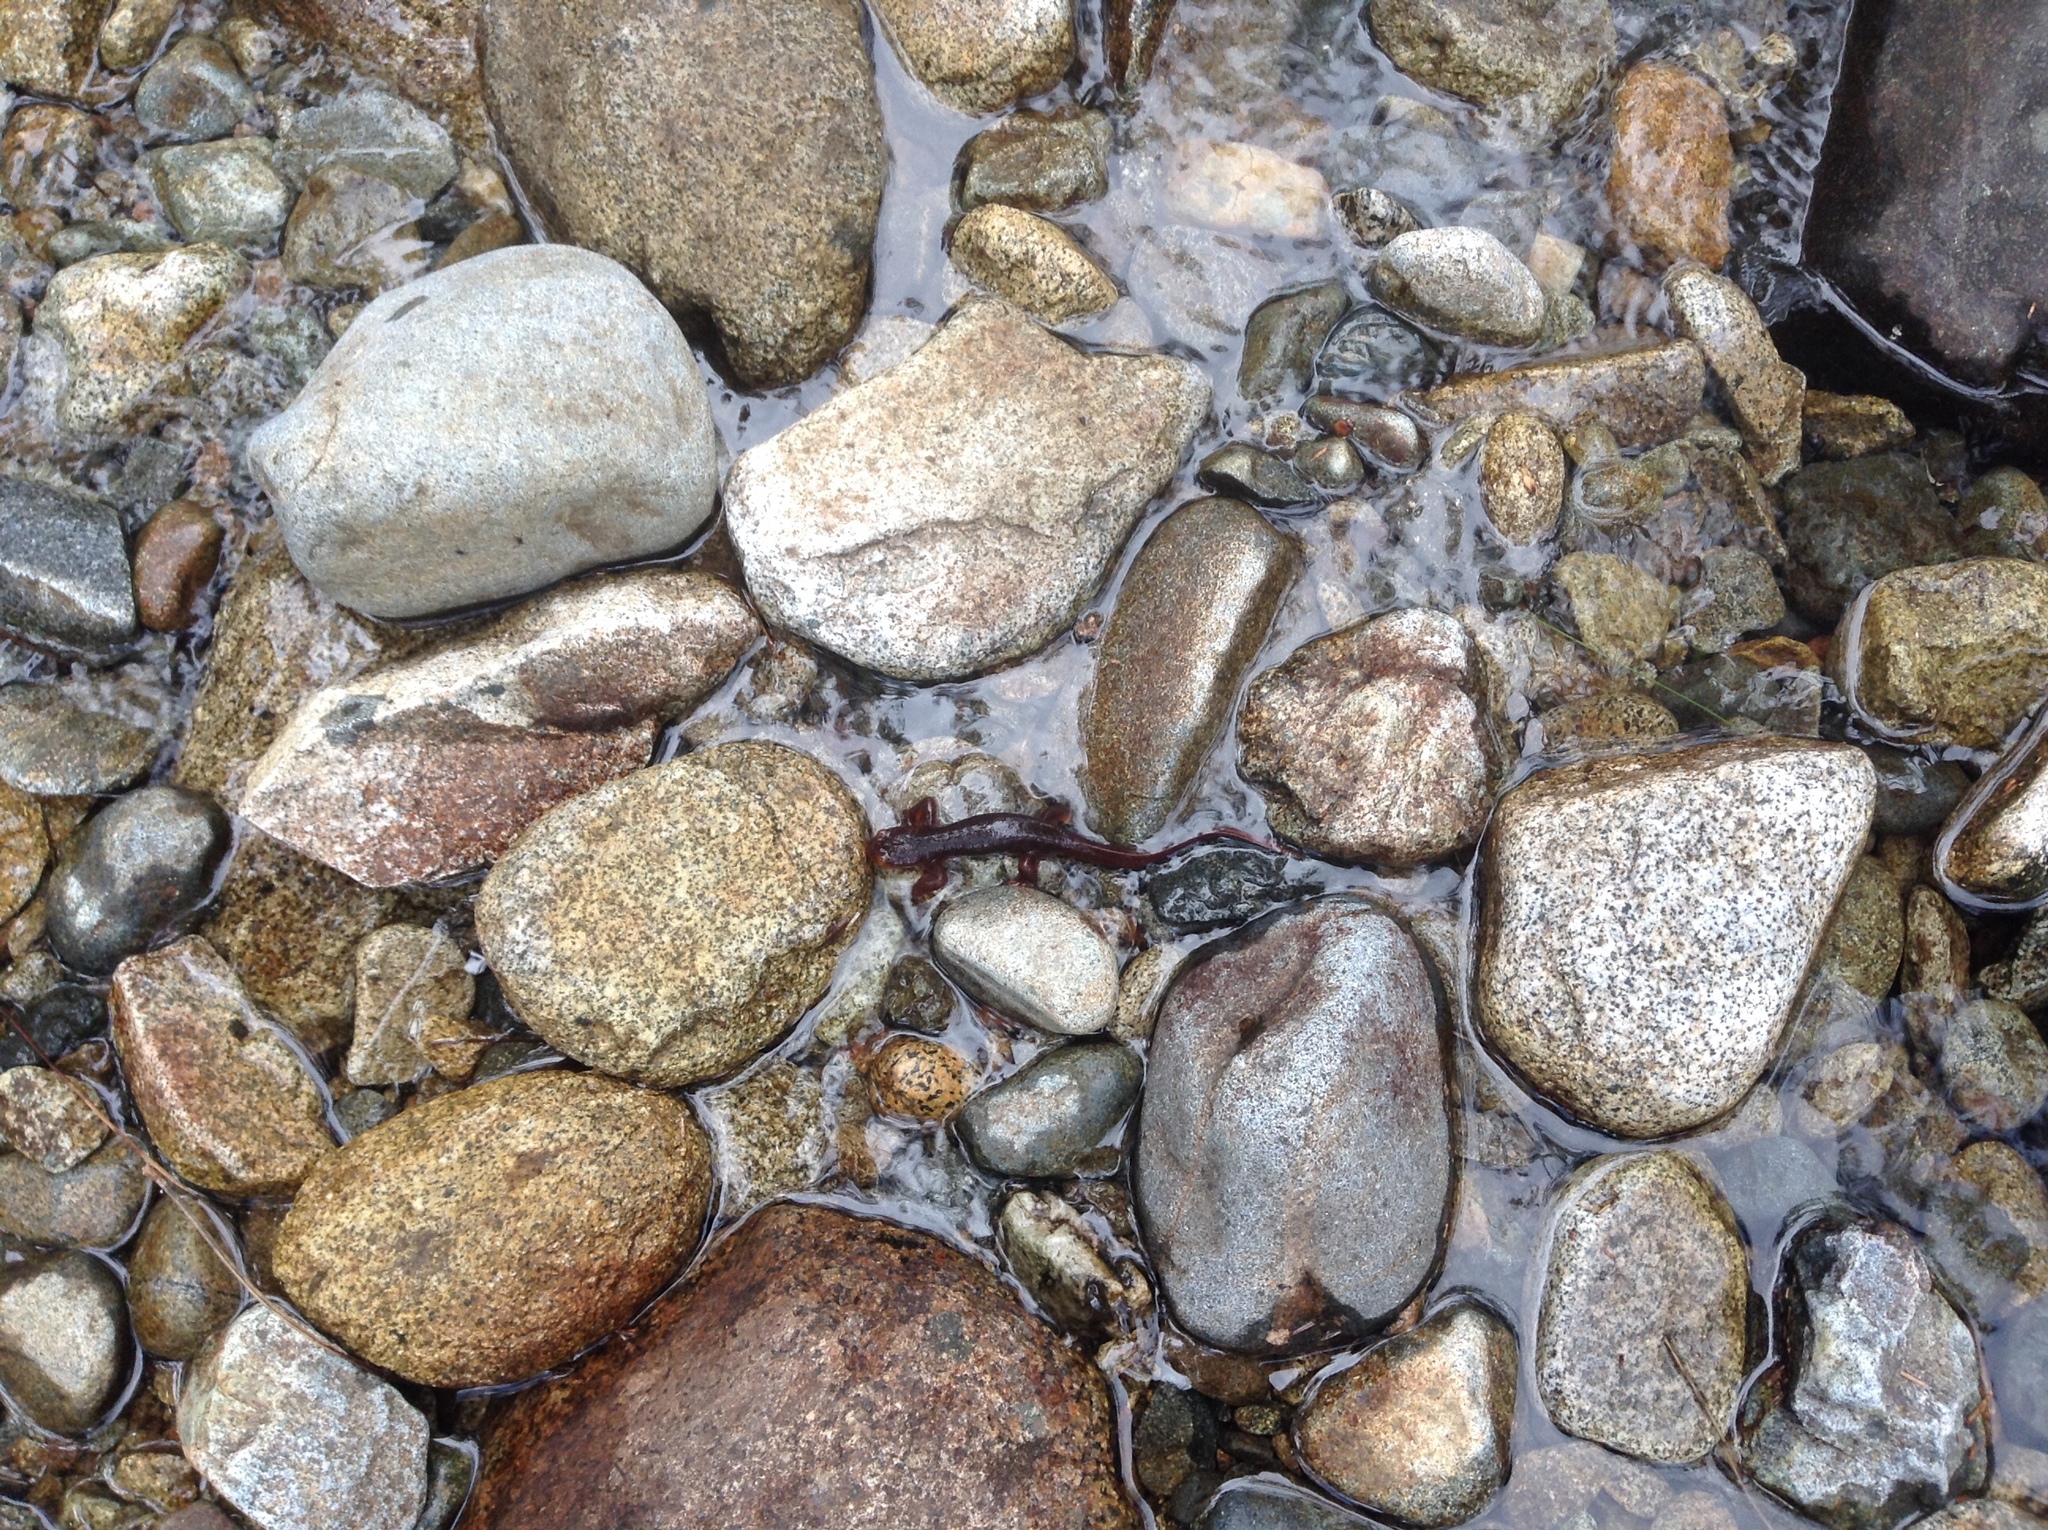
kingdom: Animalia
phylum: Chordata
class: Amphibia
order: Caudata
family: Salamandridae
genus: Taricha
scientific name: Taricha sierrae
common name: Sierra newt
